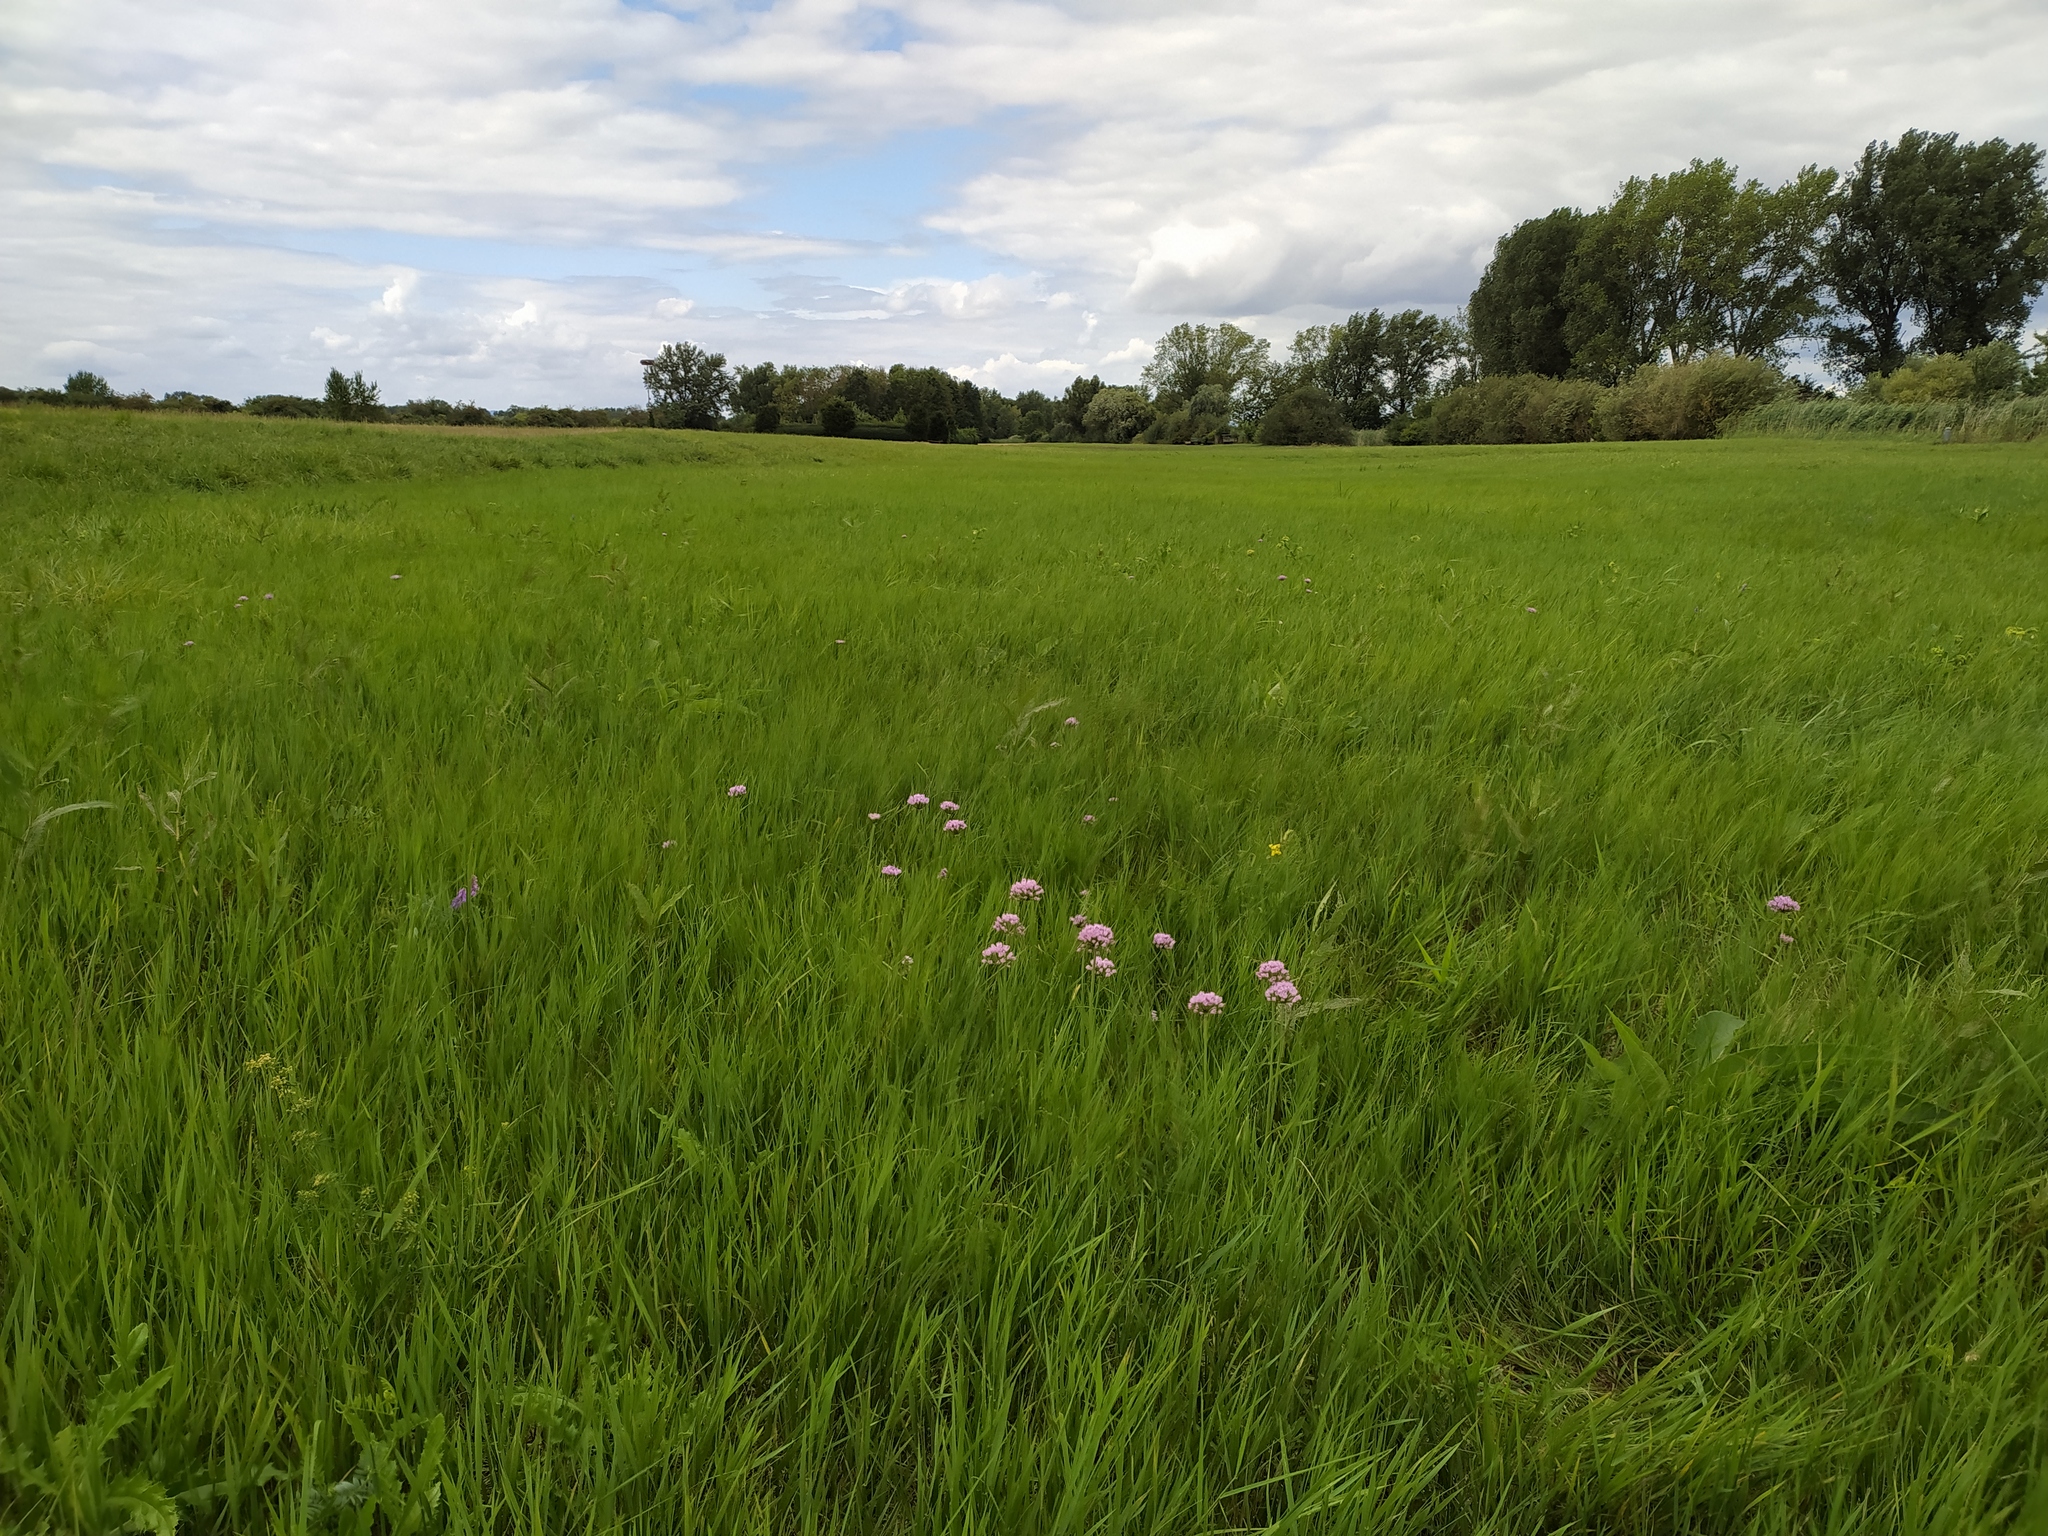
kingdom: Plantae
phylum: Tracheophyta
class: Liliopsida
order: Asparagales
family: Amaryllidaceae
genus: Allium
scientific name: Allium angulosum
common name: Mouse garlic
